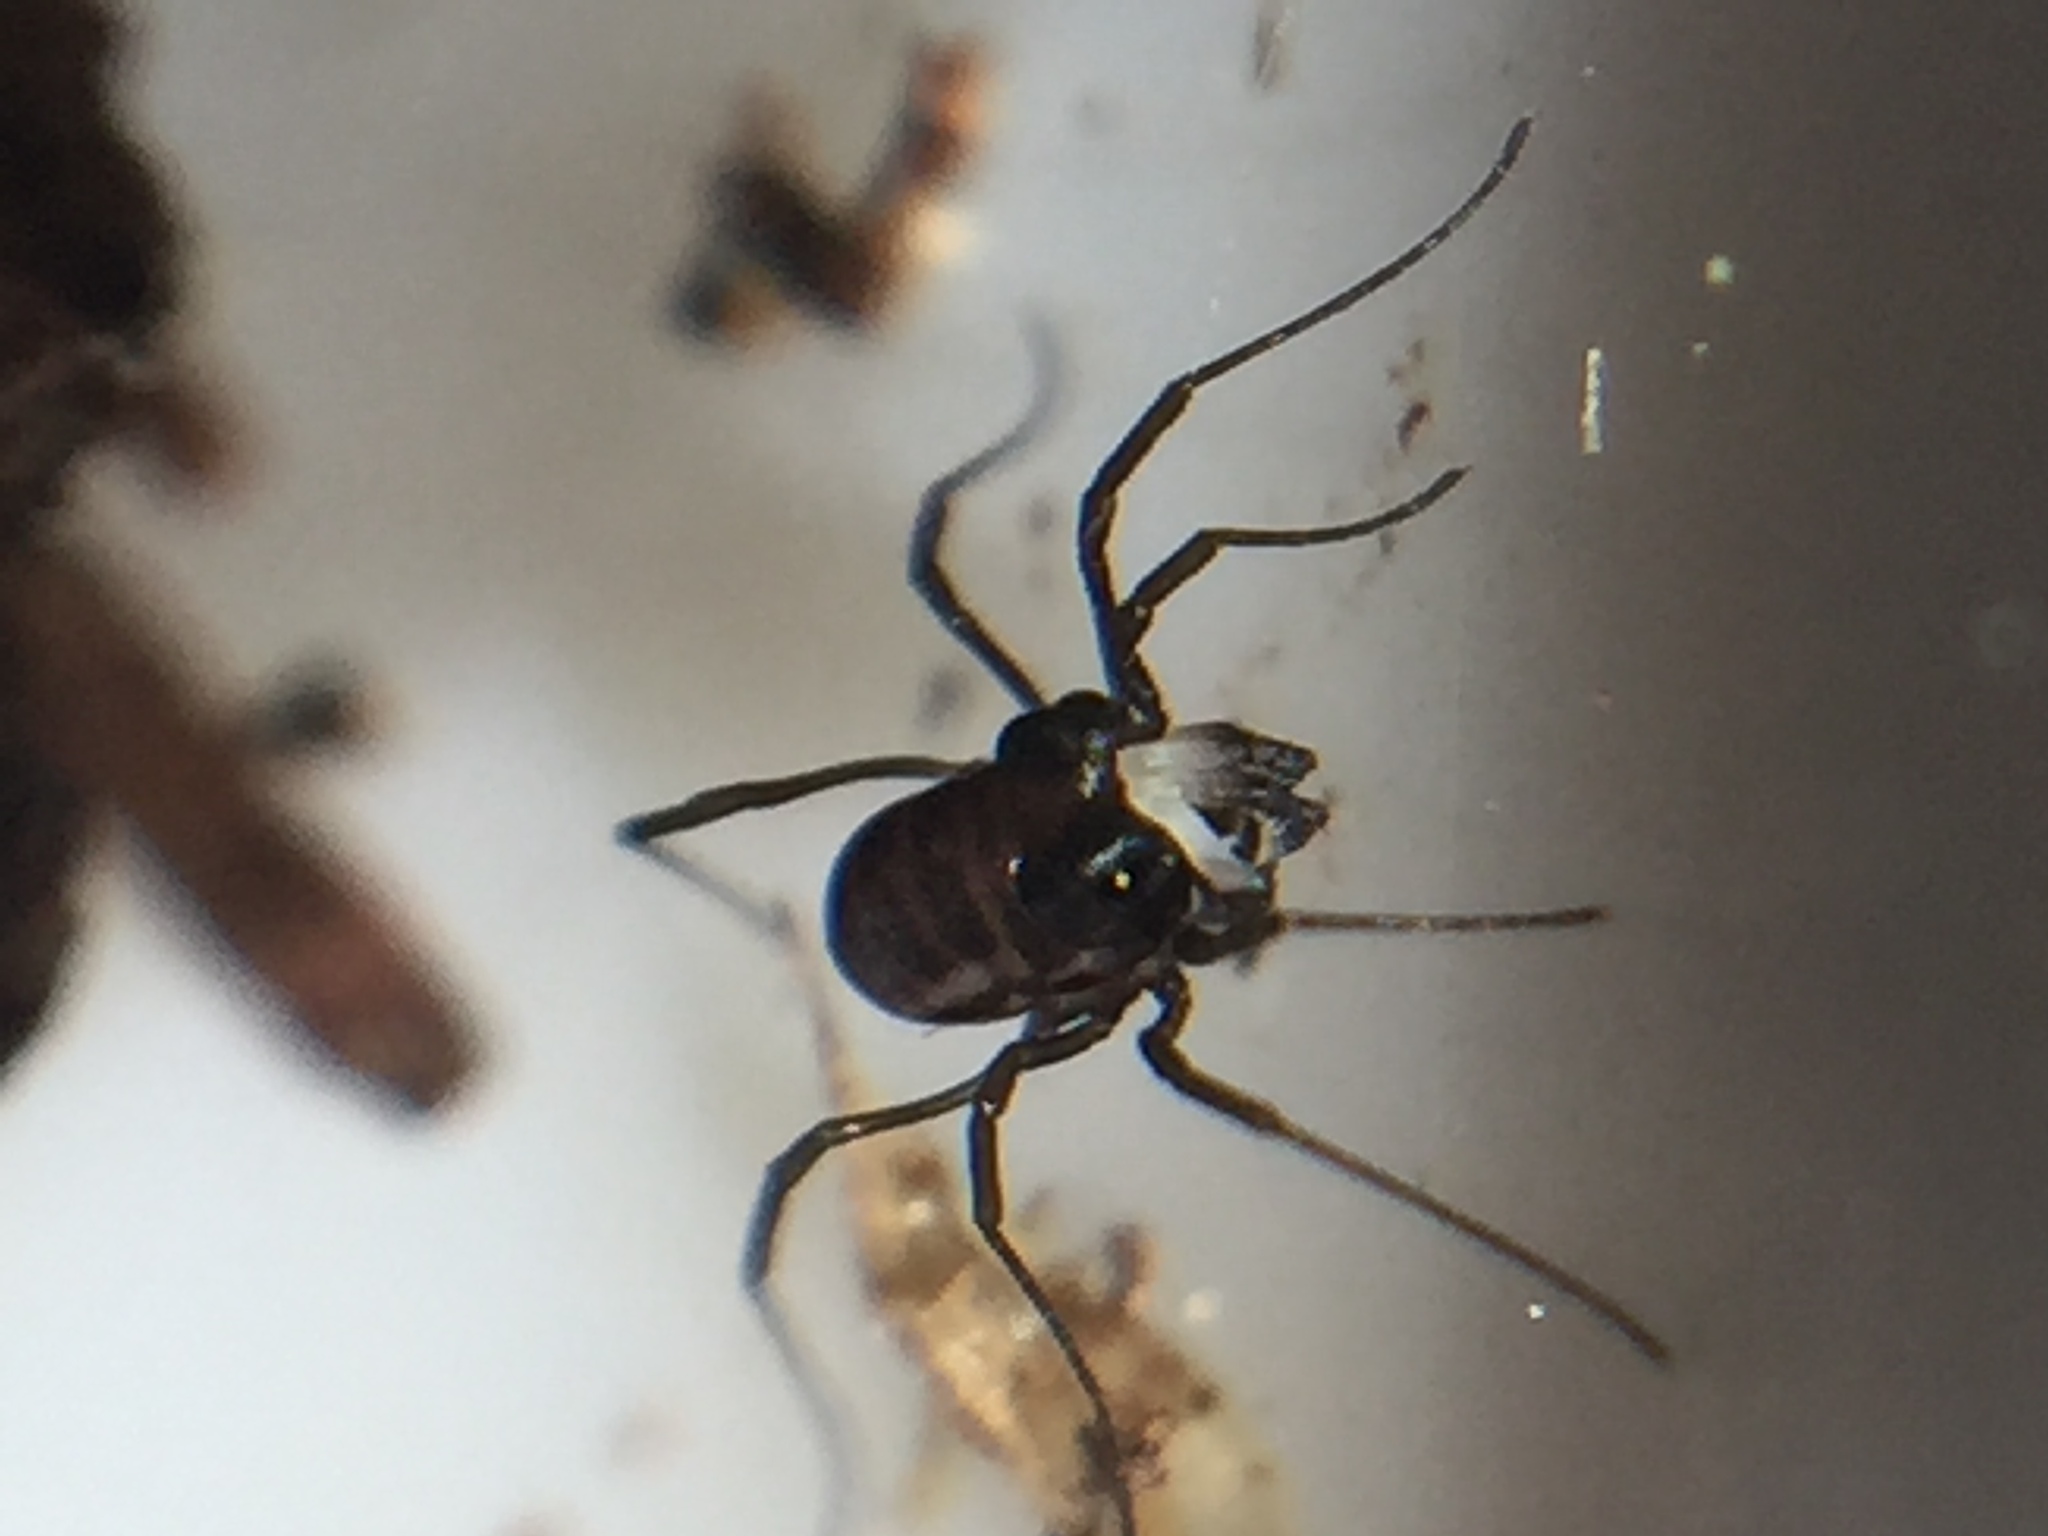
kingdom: Animalia
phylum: Arthropoda
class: Arachnida
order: Opiliones
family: Acropsopilionidae
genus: Acropsopilio
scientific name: Acropsopilio neozelandiae
